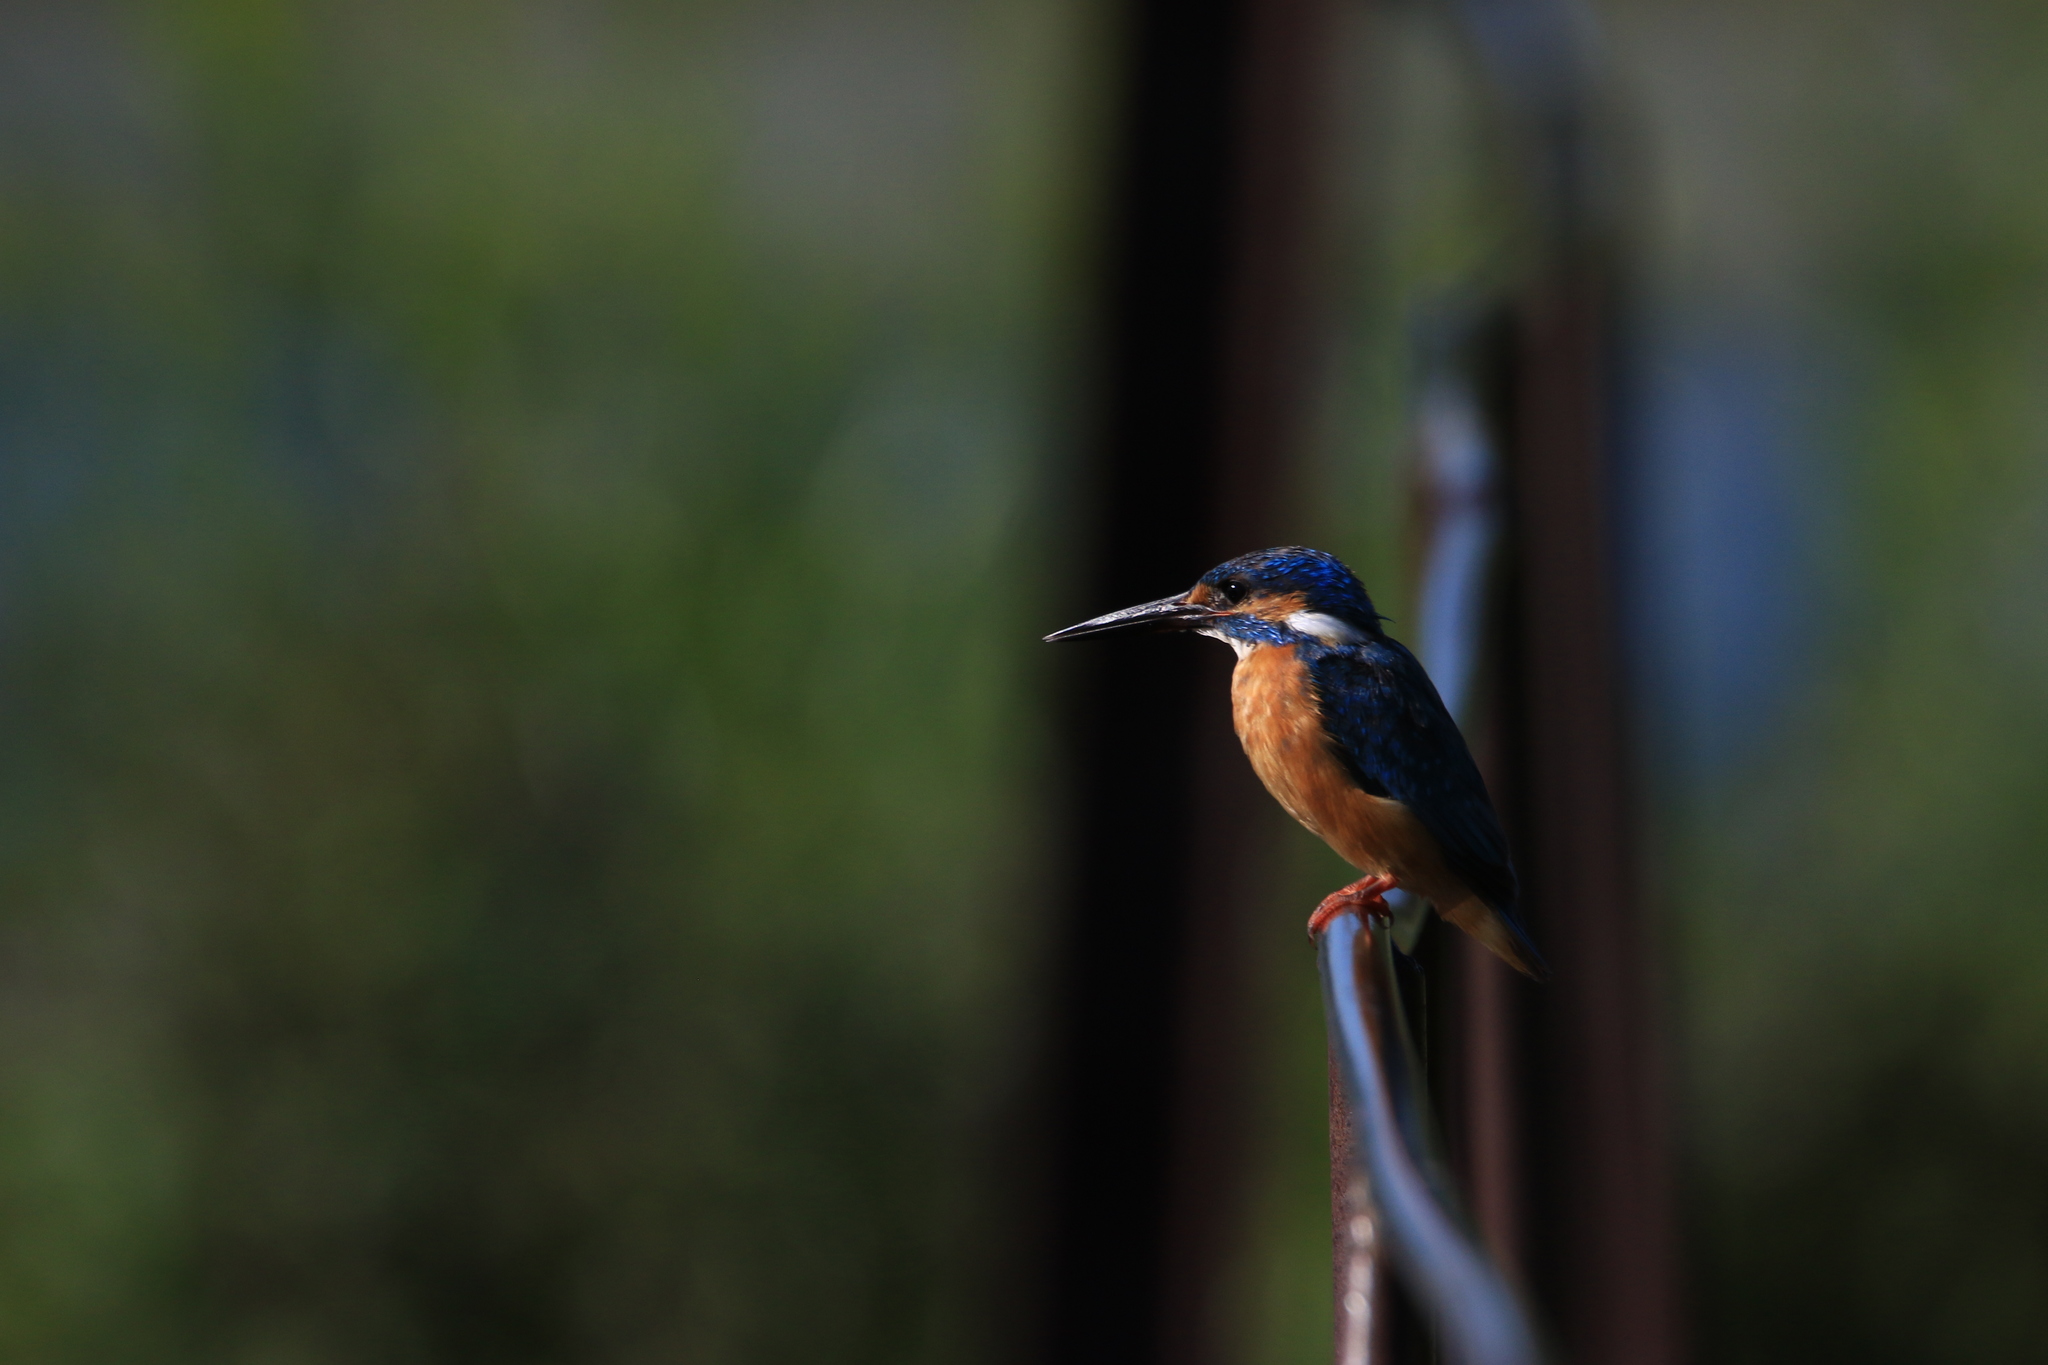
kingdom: Animalia
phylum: Chordata
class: Aves
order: Coraciiformes
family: Alcedinidae
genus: Alcedo
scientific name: Alcedo atthis
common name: Common kingfisher
